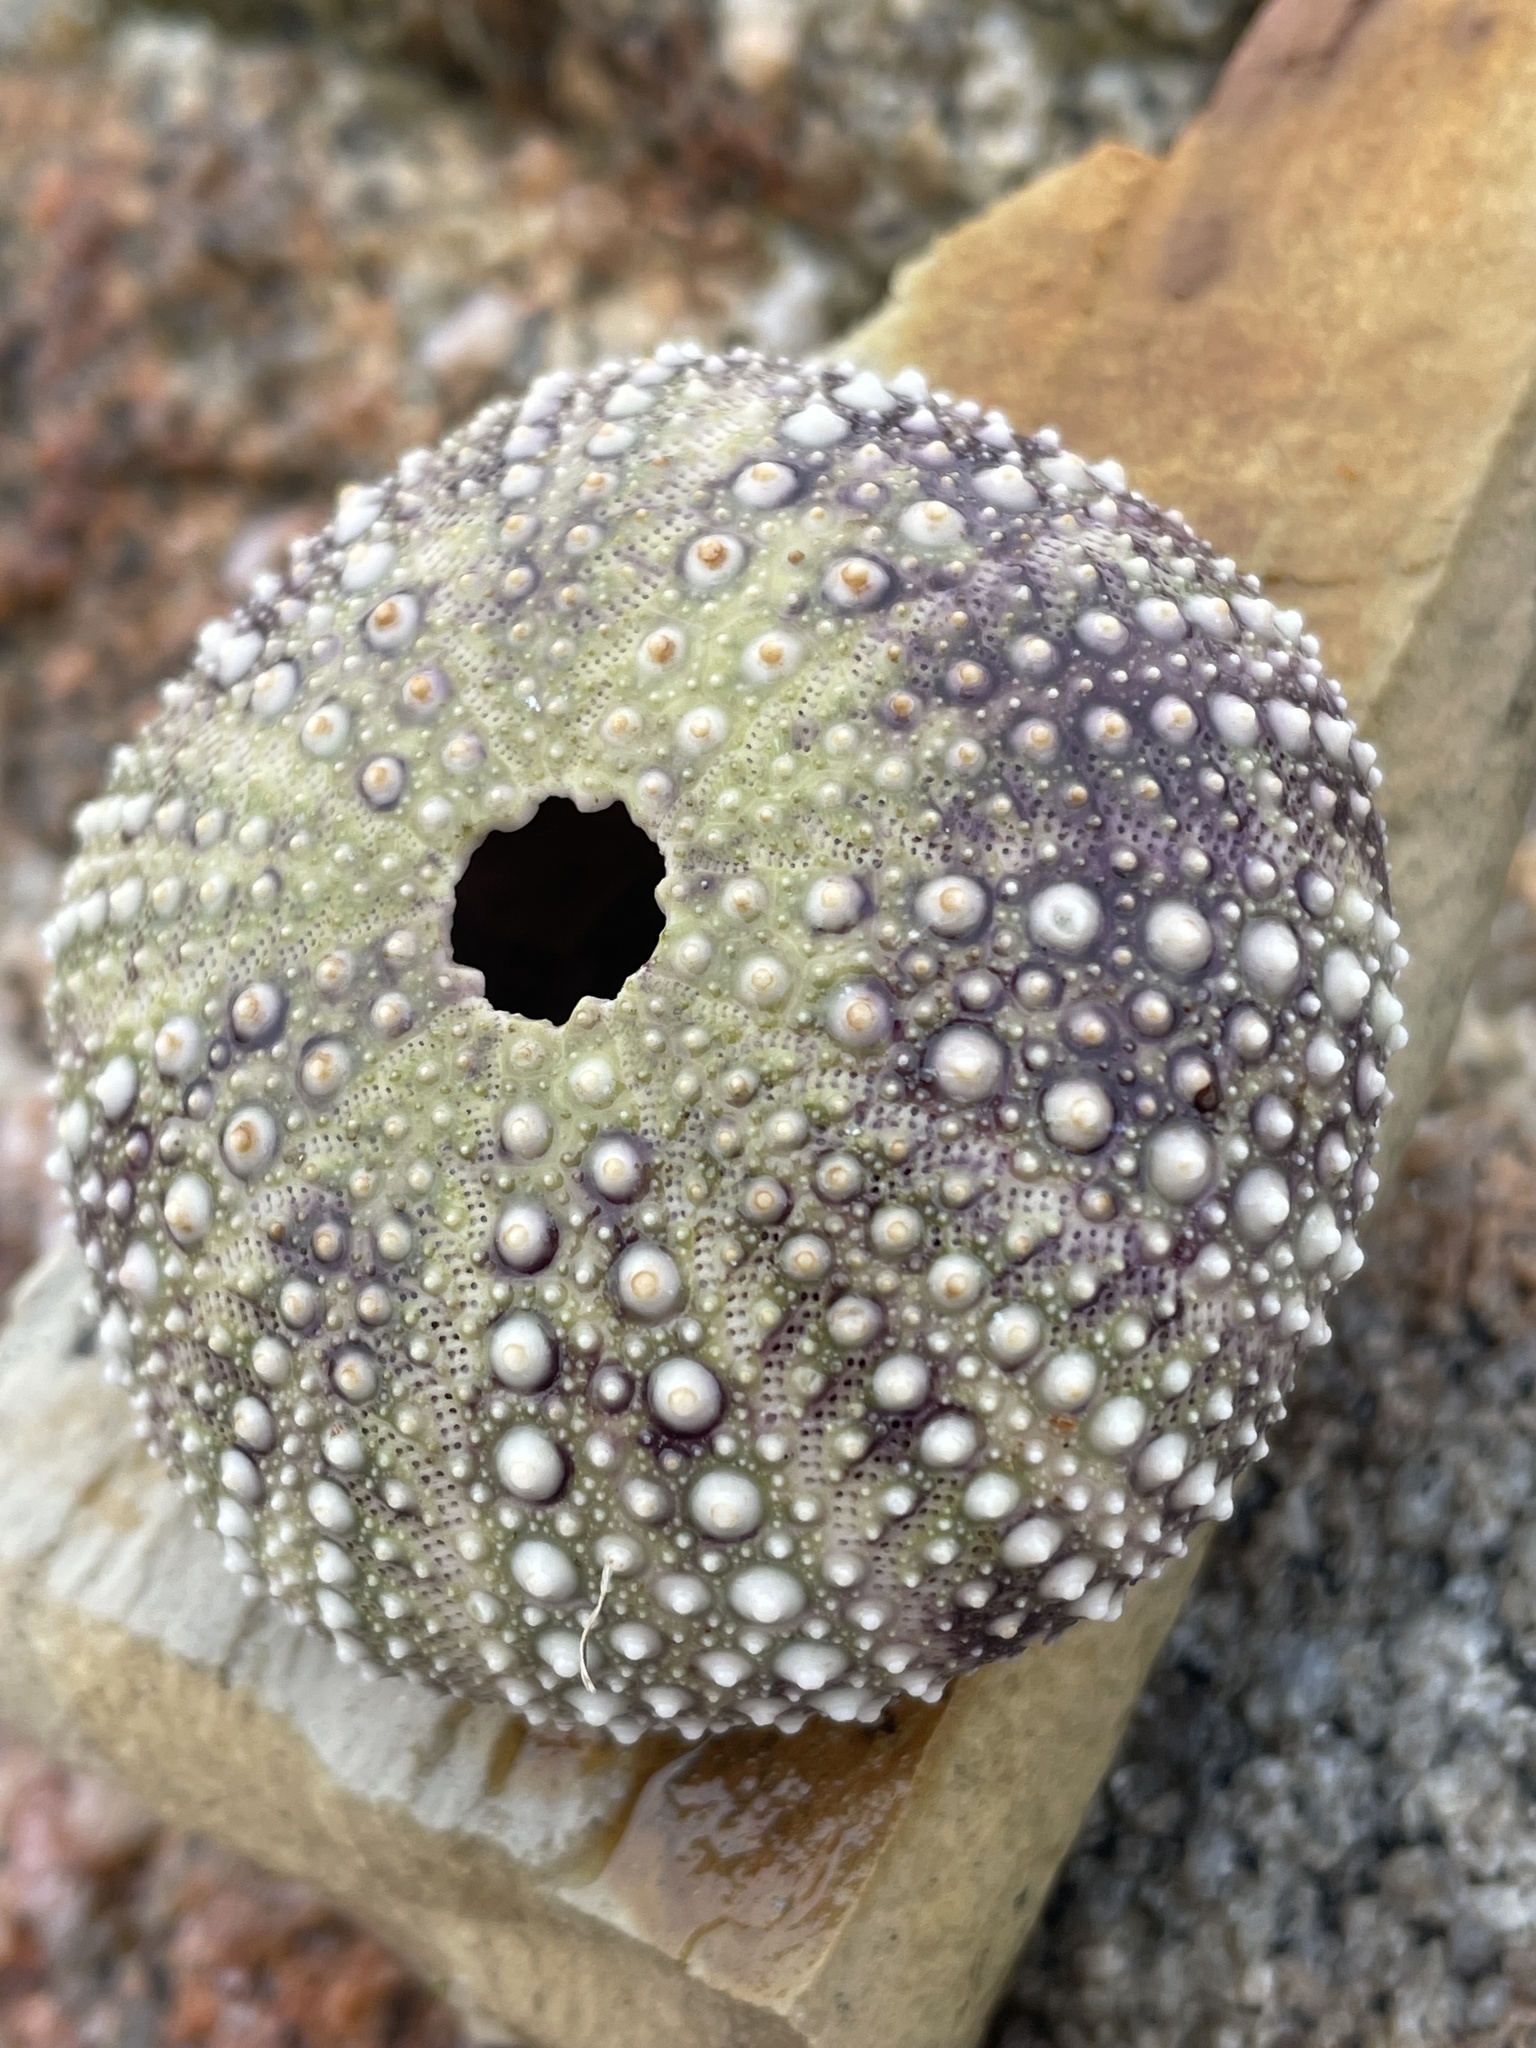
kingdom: Animalia
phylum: Echinodermata
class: Echinoidea
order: Camarodonta
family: Strongylocentrotidae
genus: Strongylocentrotus
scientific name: Strongylocentrotus purpuratus
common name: Purple sea urchin
